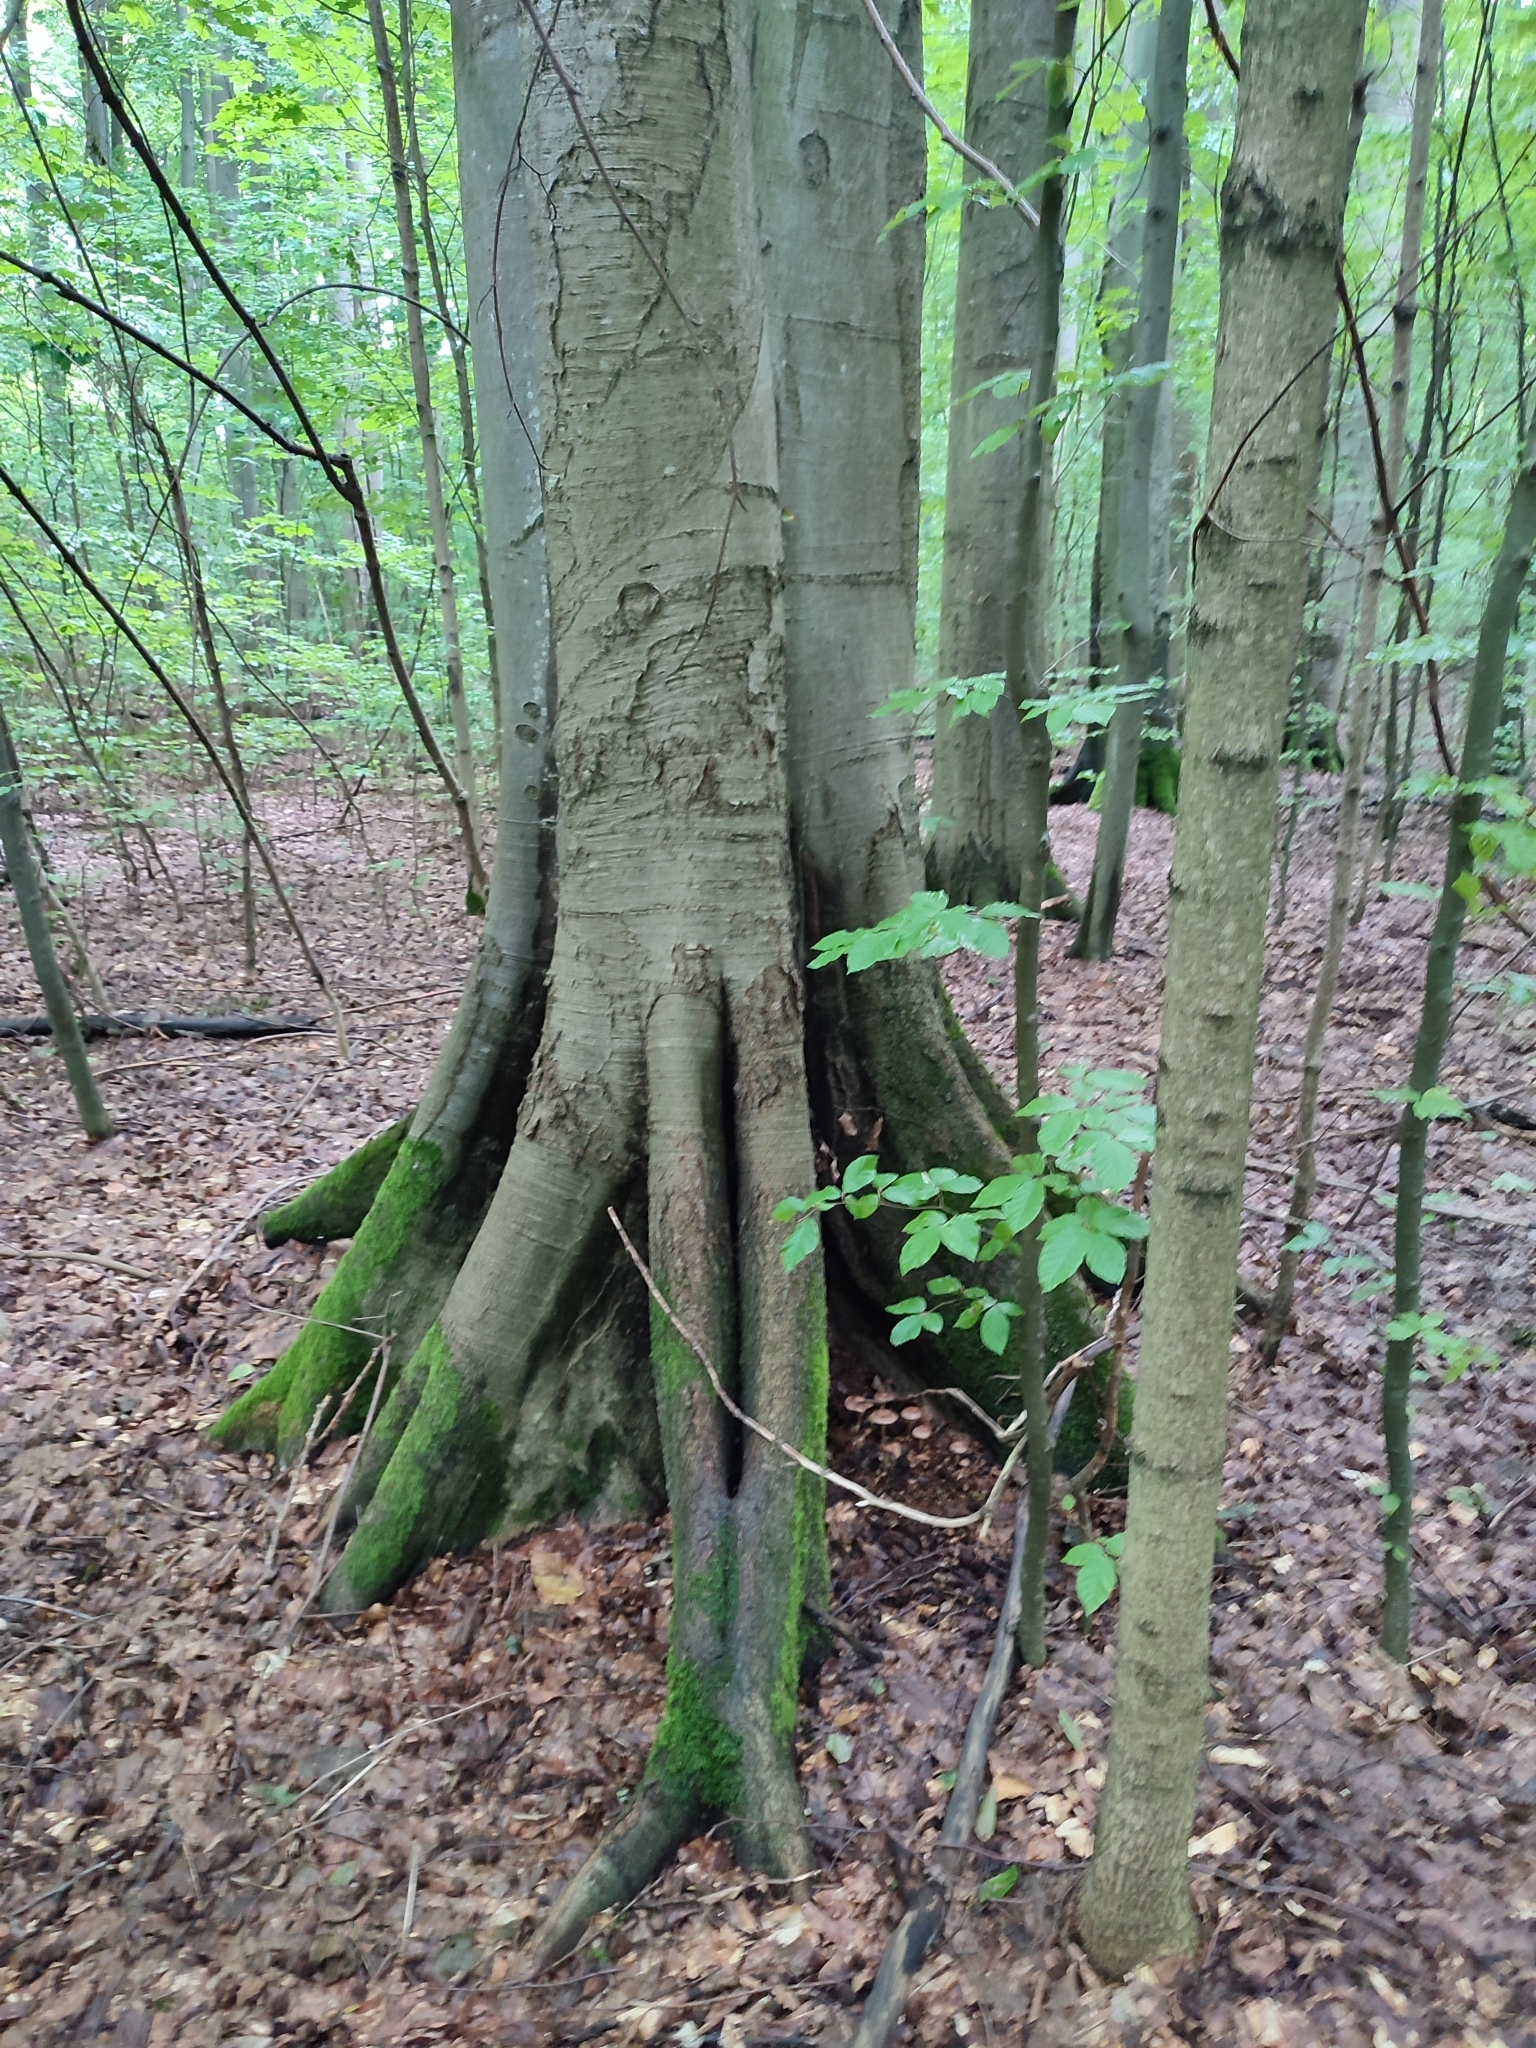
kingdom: Plantae
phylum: Tracheophyta
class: Magnoliopsida
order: Fagales
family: Fagaceae
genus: Fagus
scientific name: Fagus sylvatica
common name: Beech
